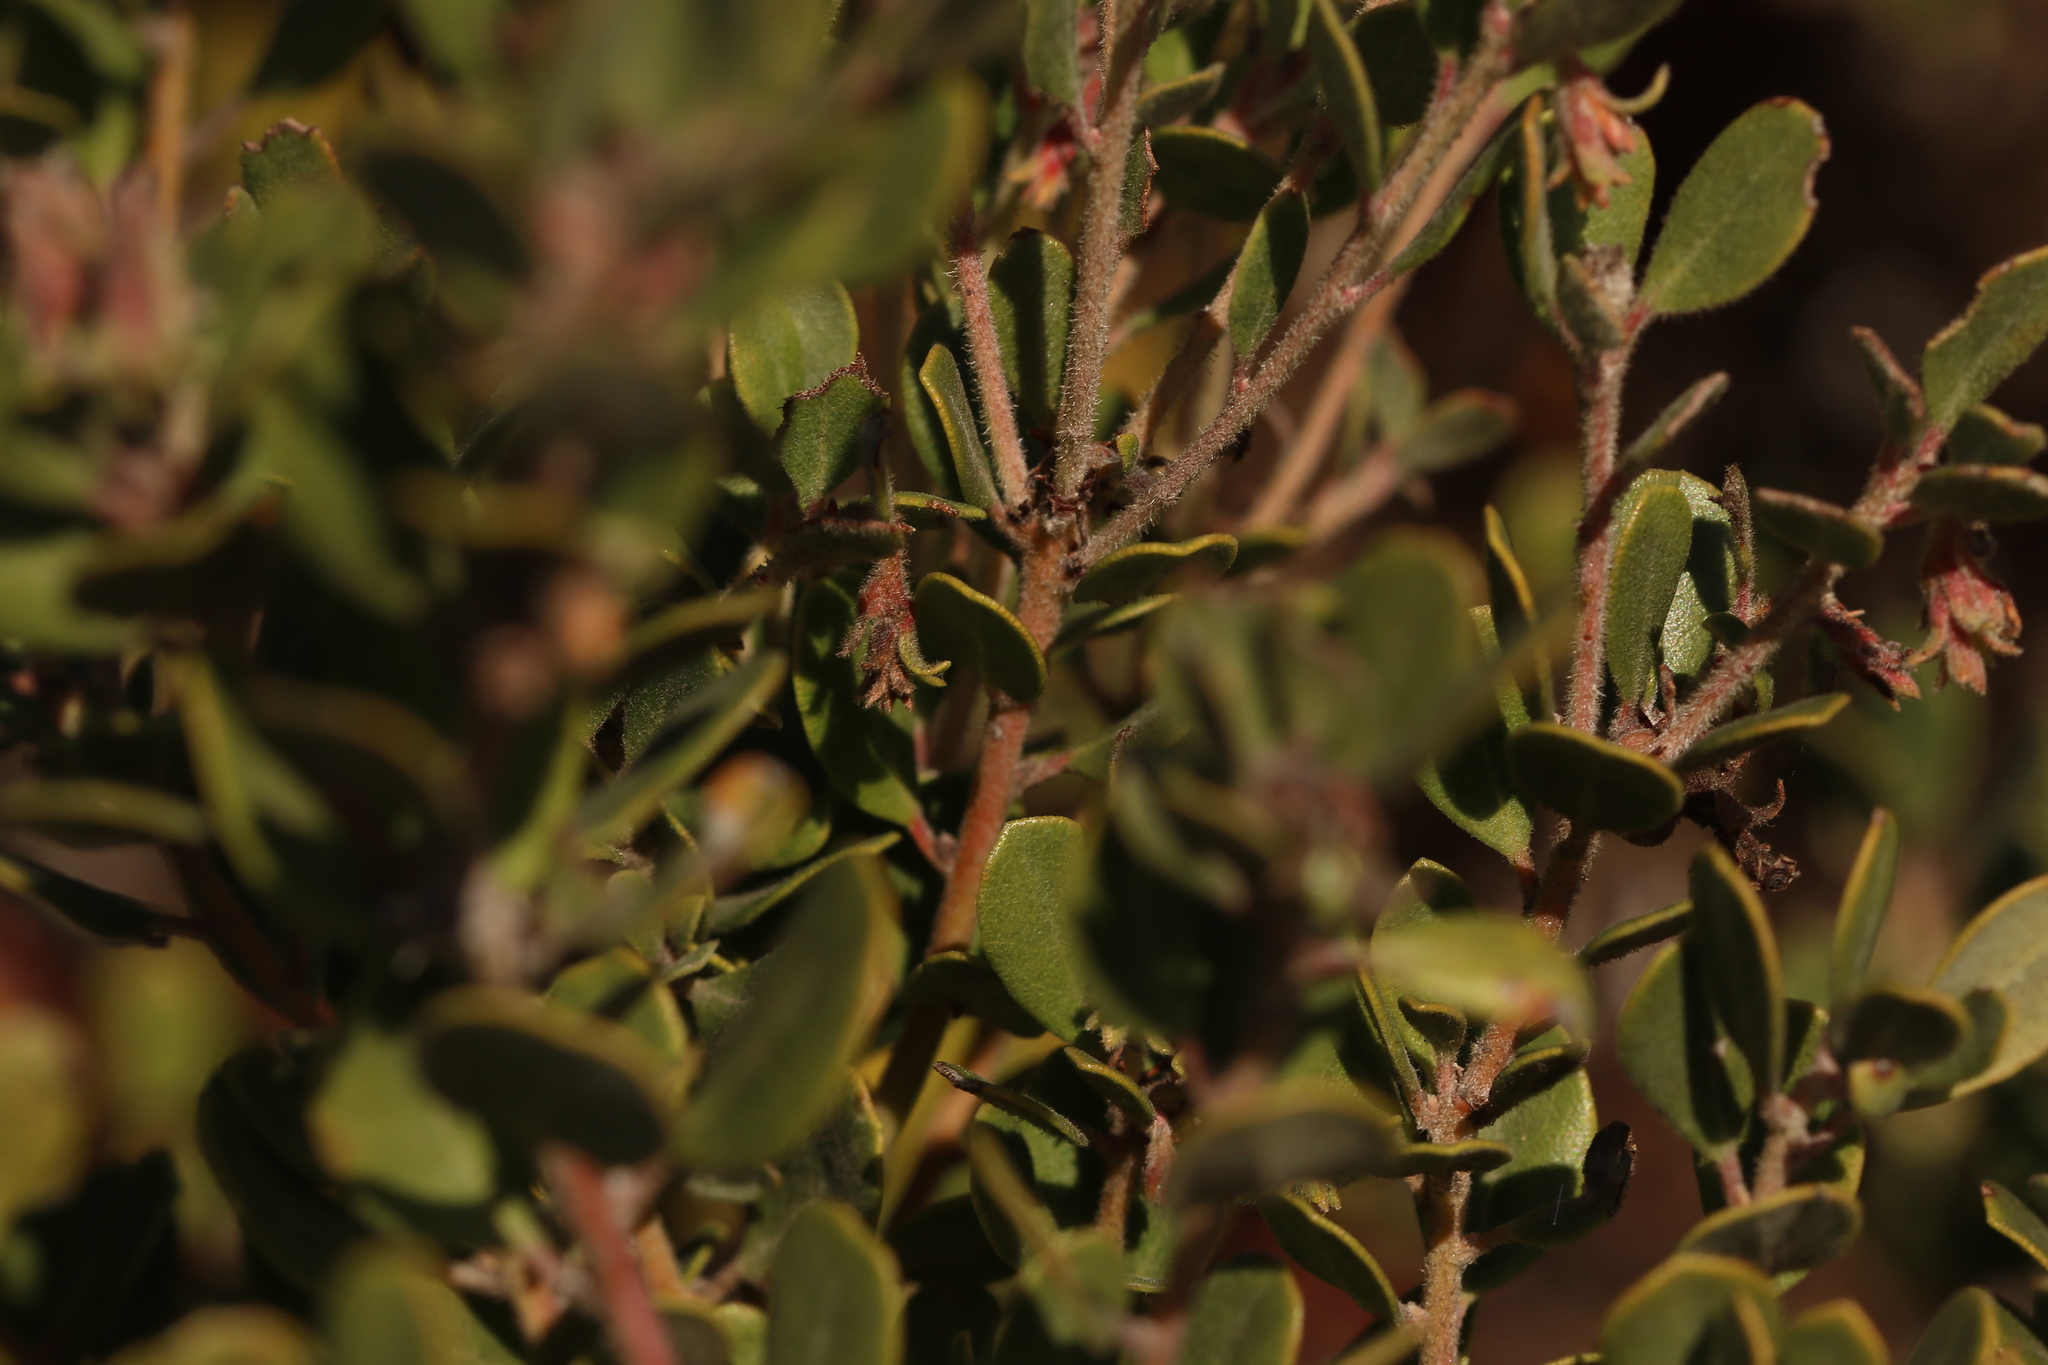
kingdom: Plantae
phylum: Tracheophyta
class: Magnoliopsida
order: Ericales
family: Ericaceae
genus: Arctostaphylos
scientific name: Arctostaphylos pumila
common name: Sandmat manzanita
